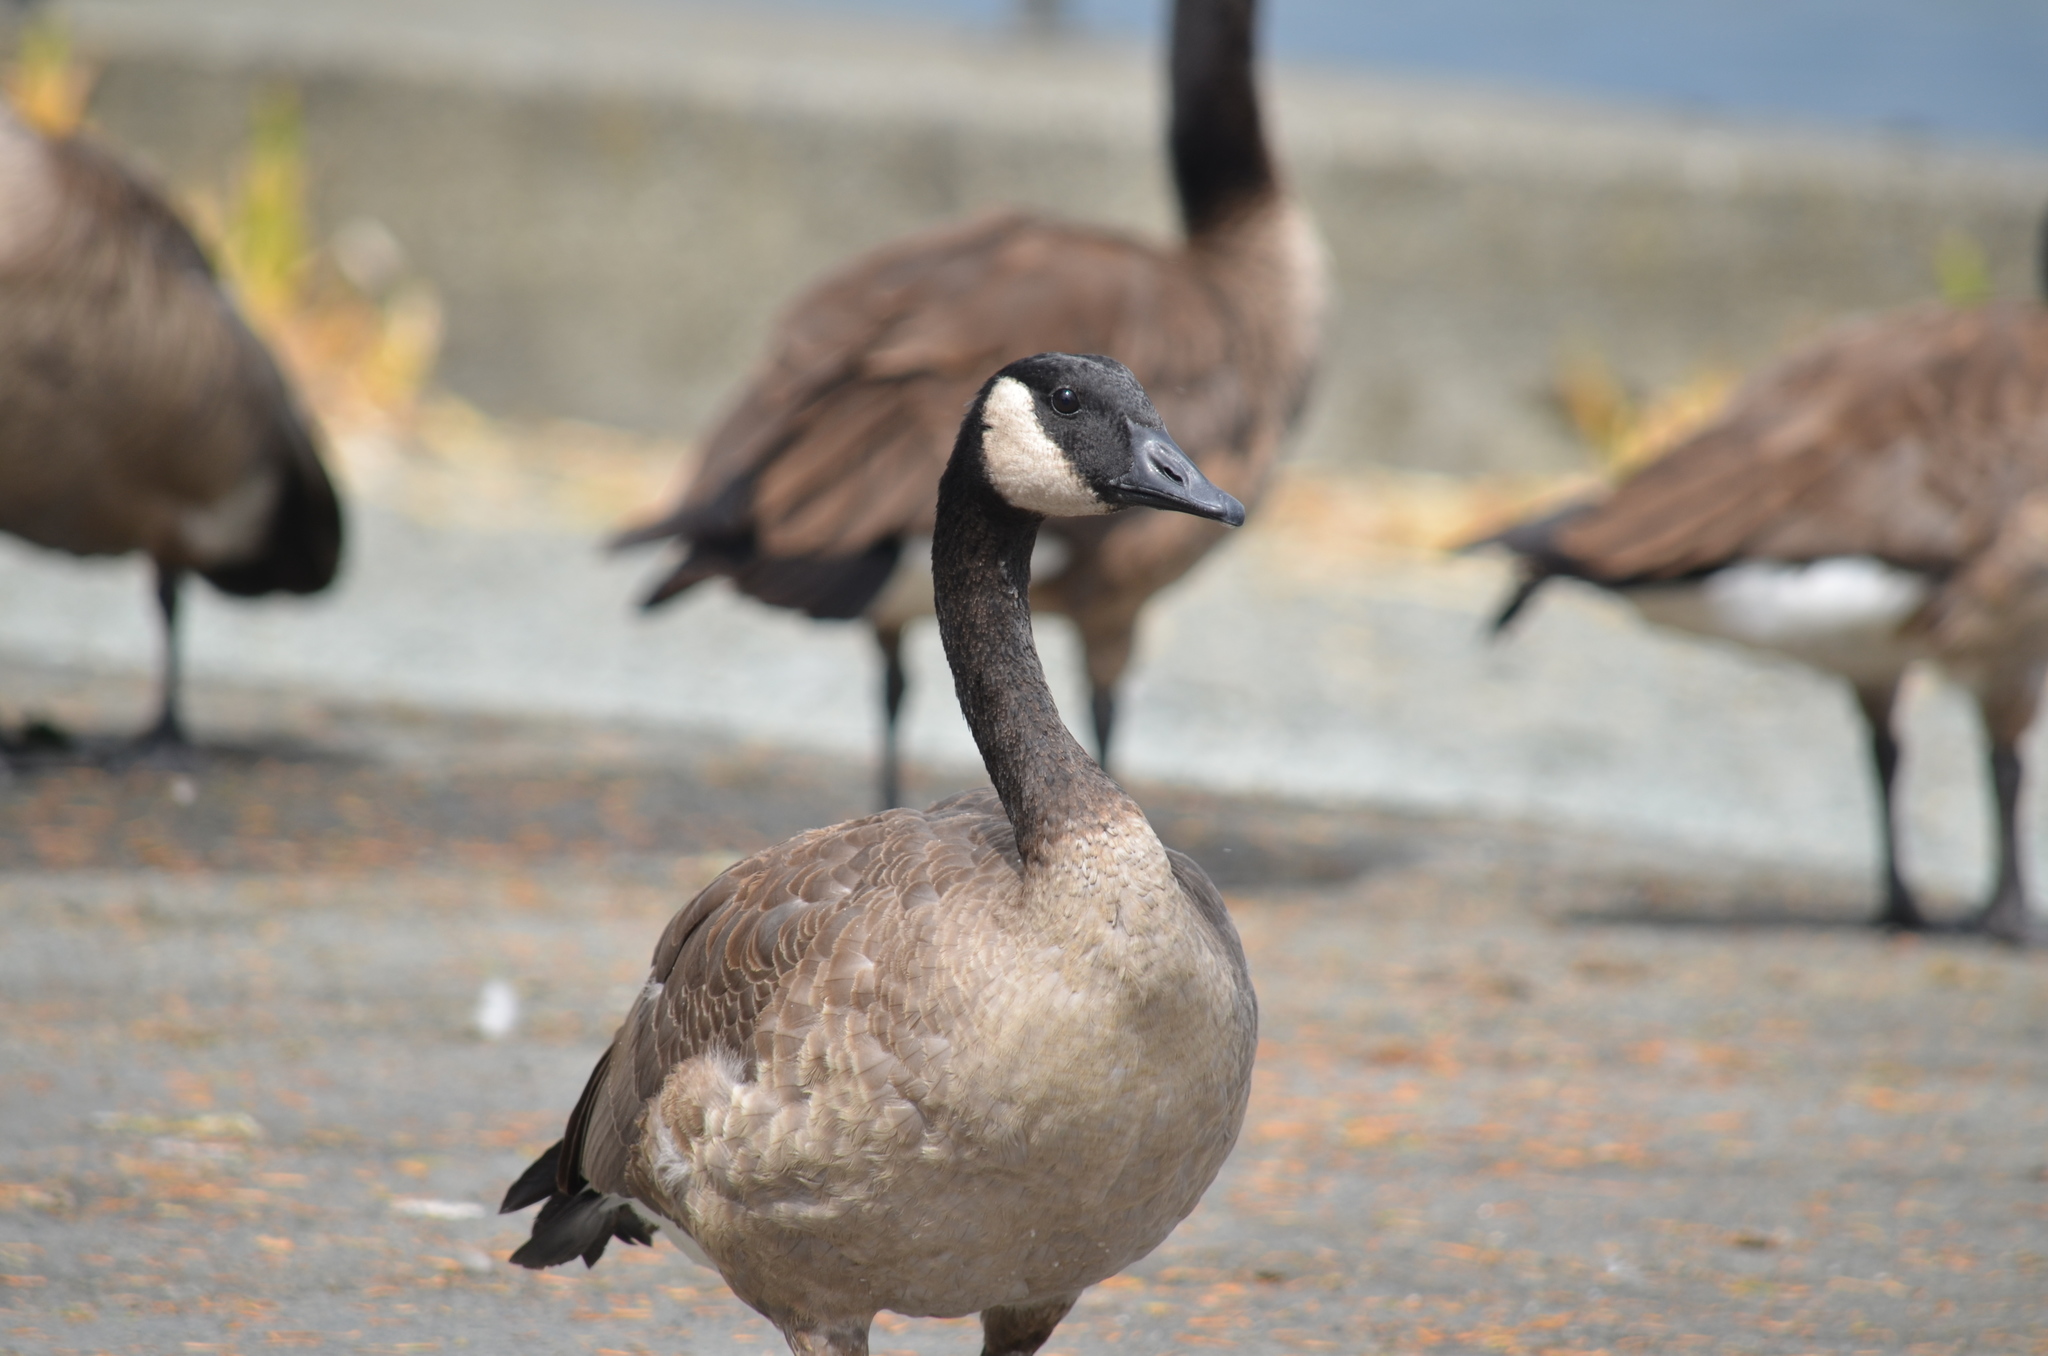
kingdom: Animalia
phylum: Chordata
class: Aves
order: Anseriformes
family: Anatidae
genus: Branta
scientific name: Branta canadensis
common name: Canada goose
